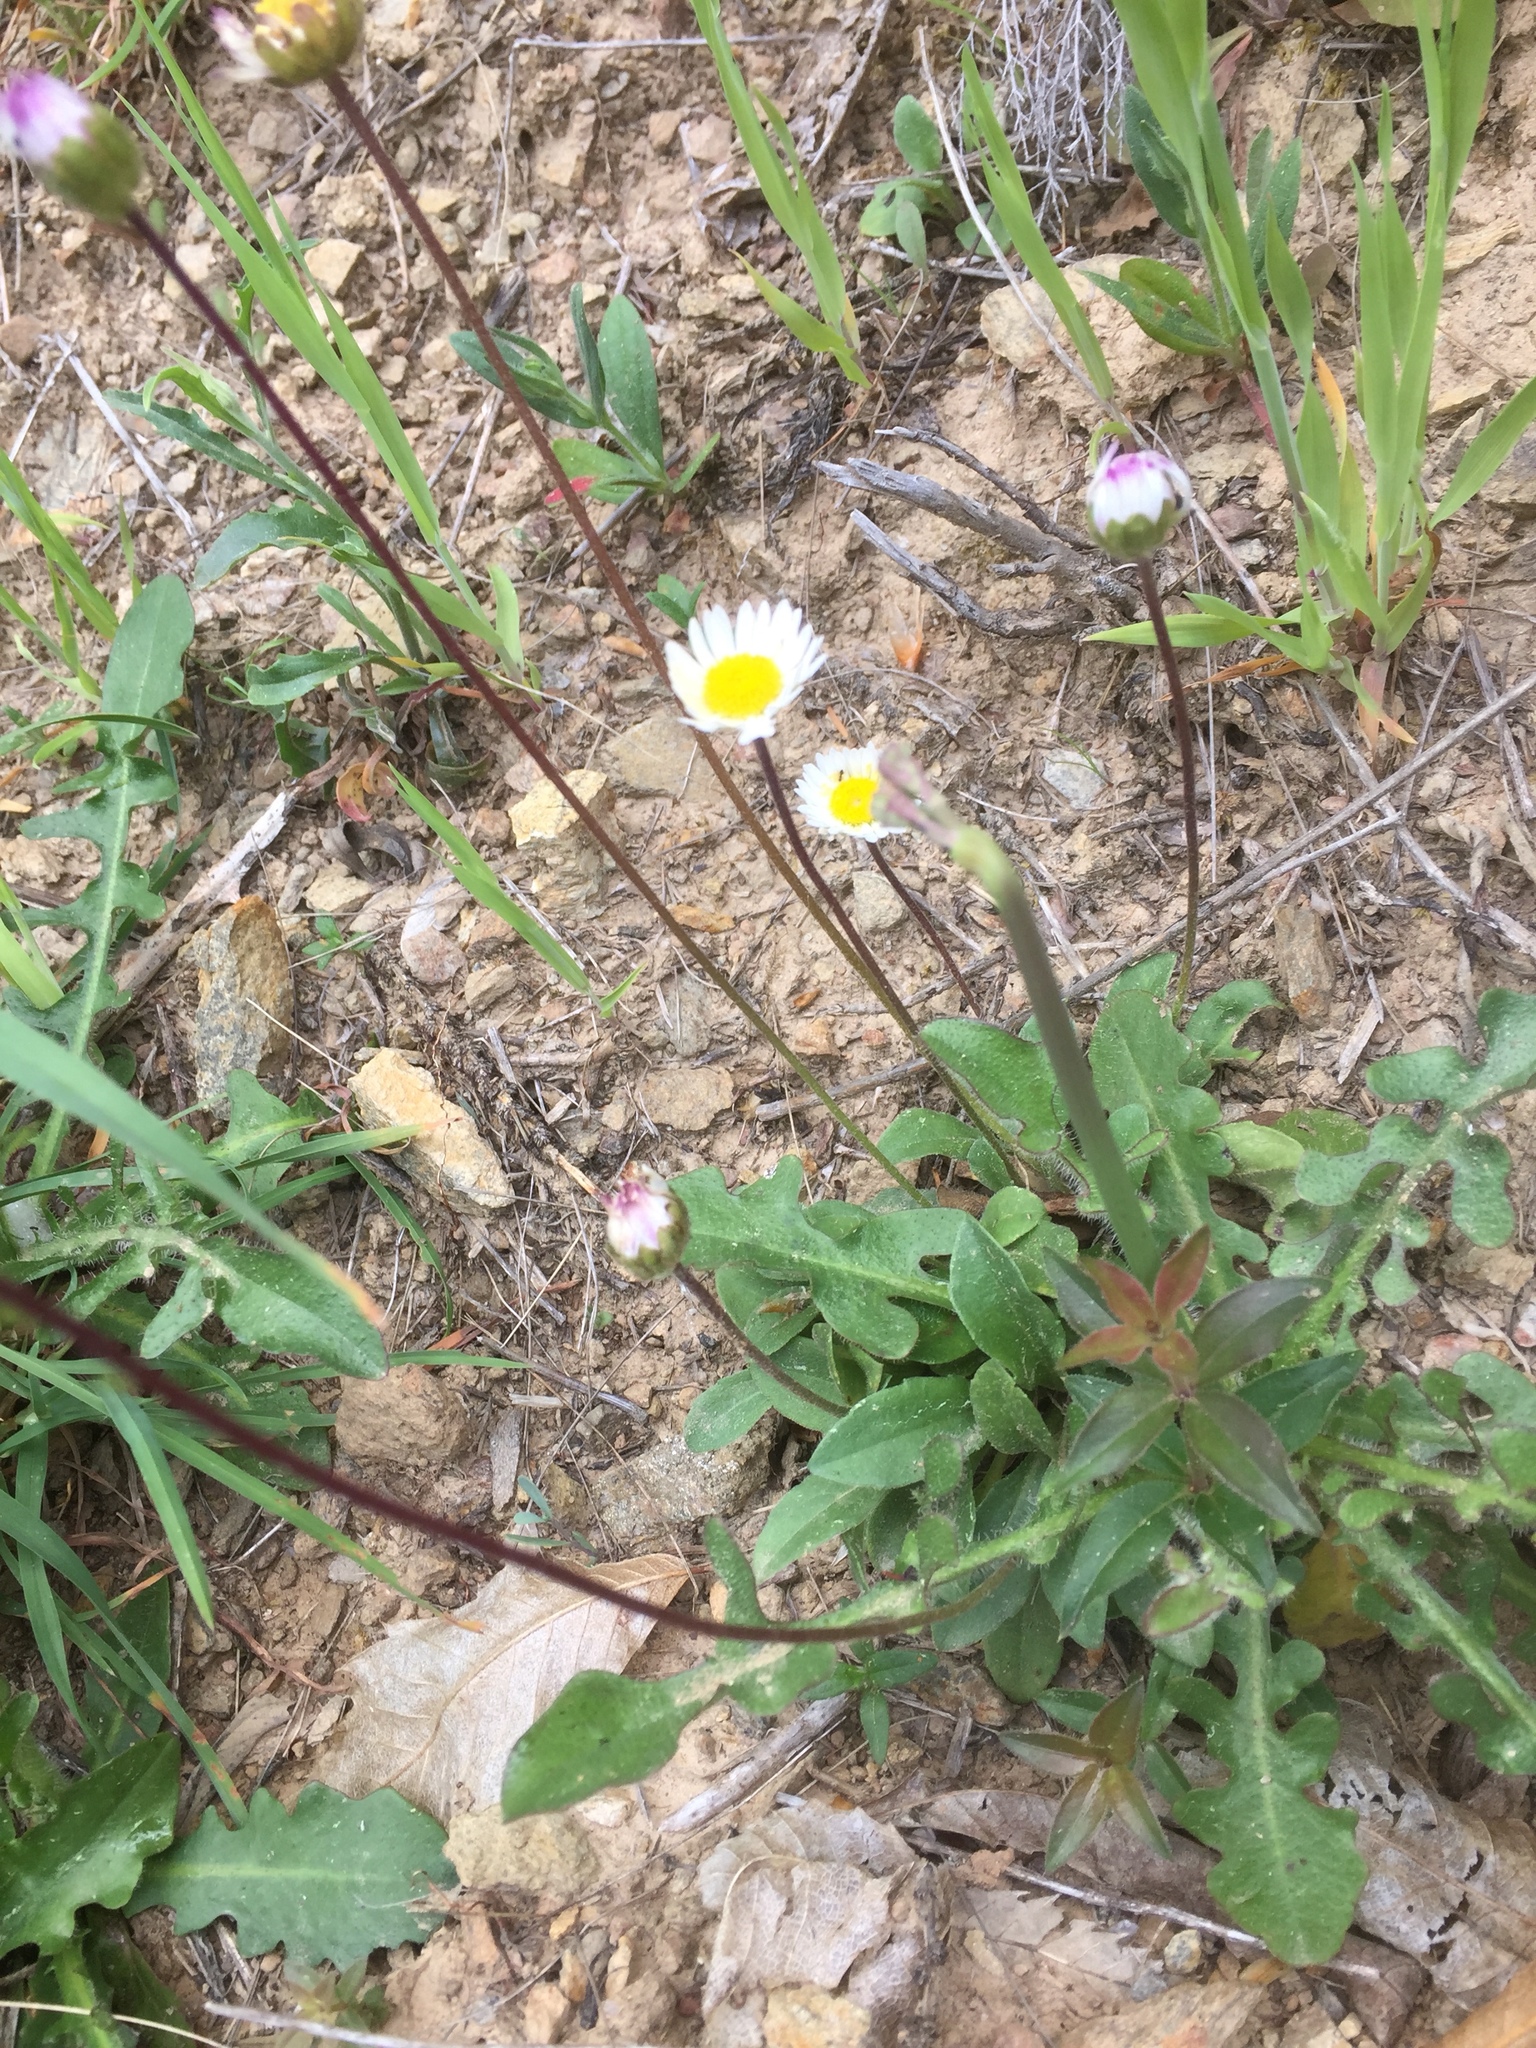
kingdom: Plantae
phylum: Tracheophyta
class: Magnoliopsida
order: Asterales
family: Asteraceae
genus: Bellis
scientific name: Bellis sylvestris
